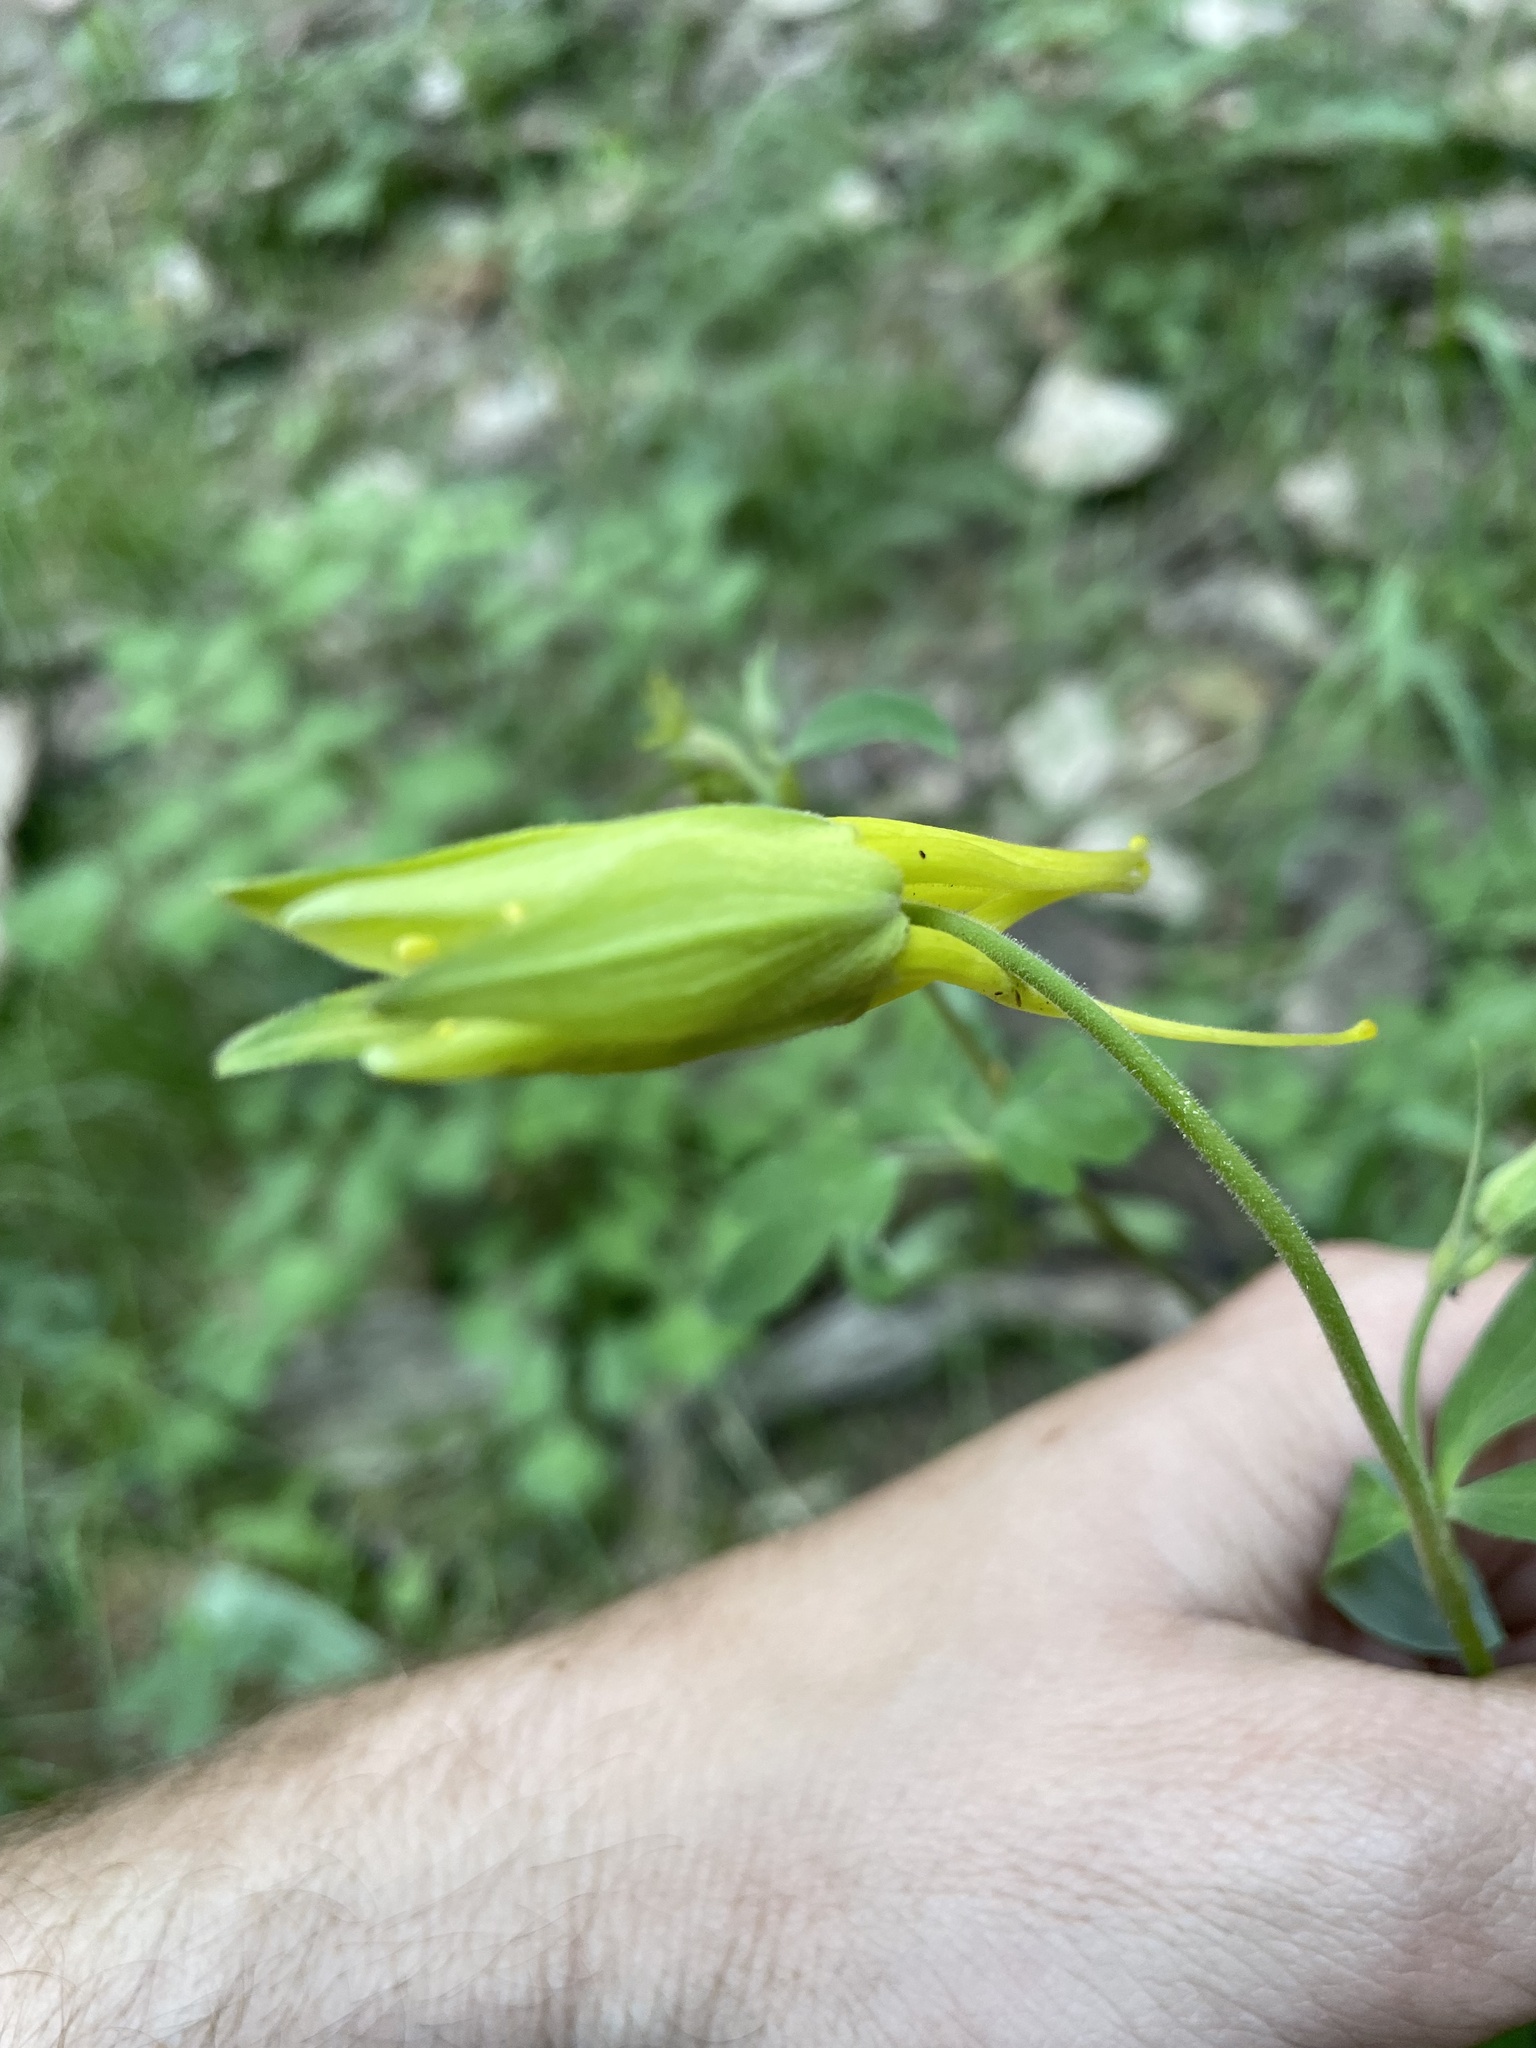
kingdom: Plantae
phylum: Tracheophyta
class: Magnoliopsida
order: Ranunculales
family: Ranunculaceae
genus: Aquilegia
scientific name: Aquilegia chrysantha
